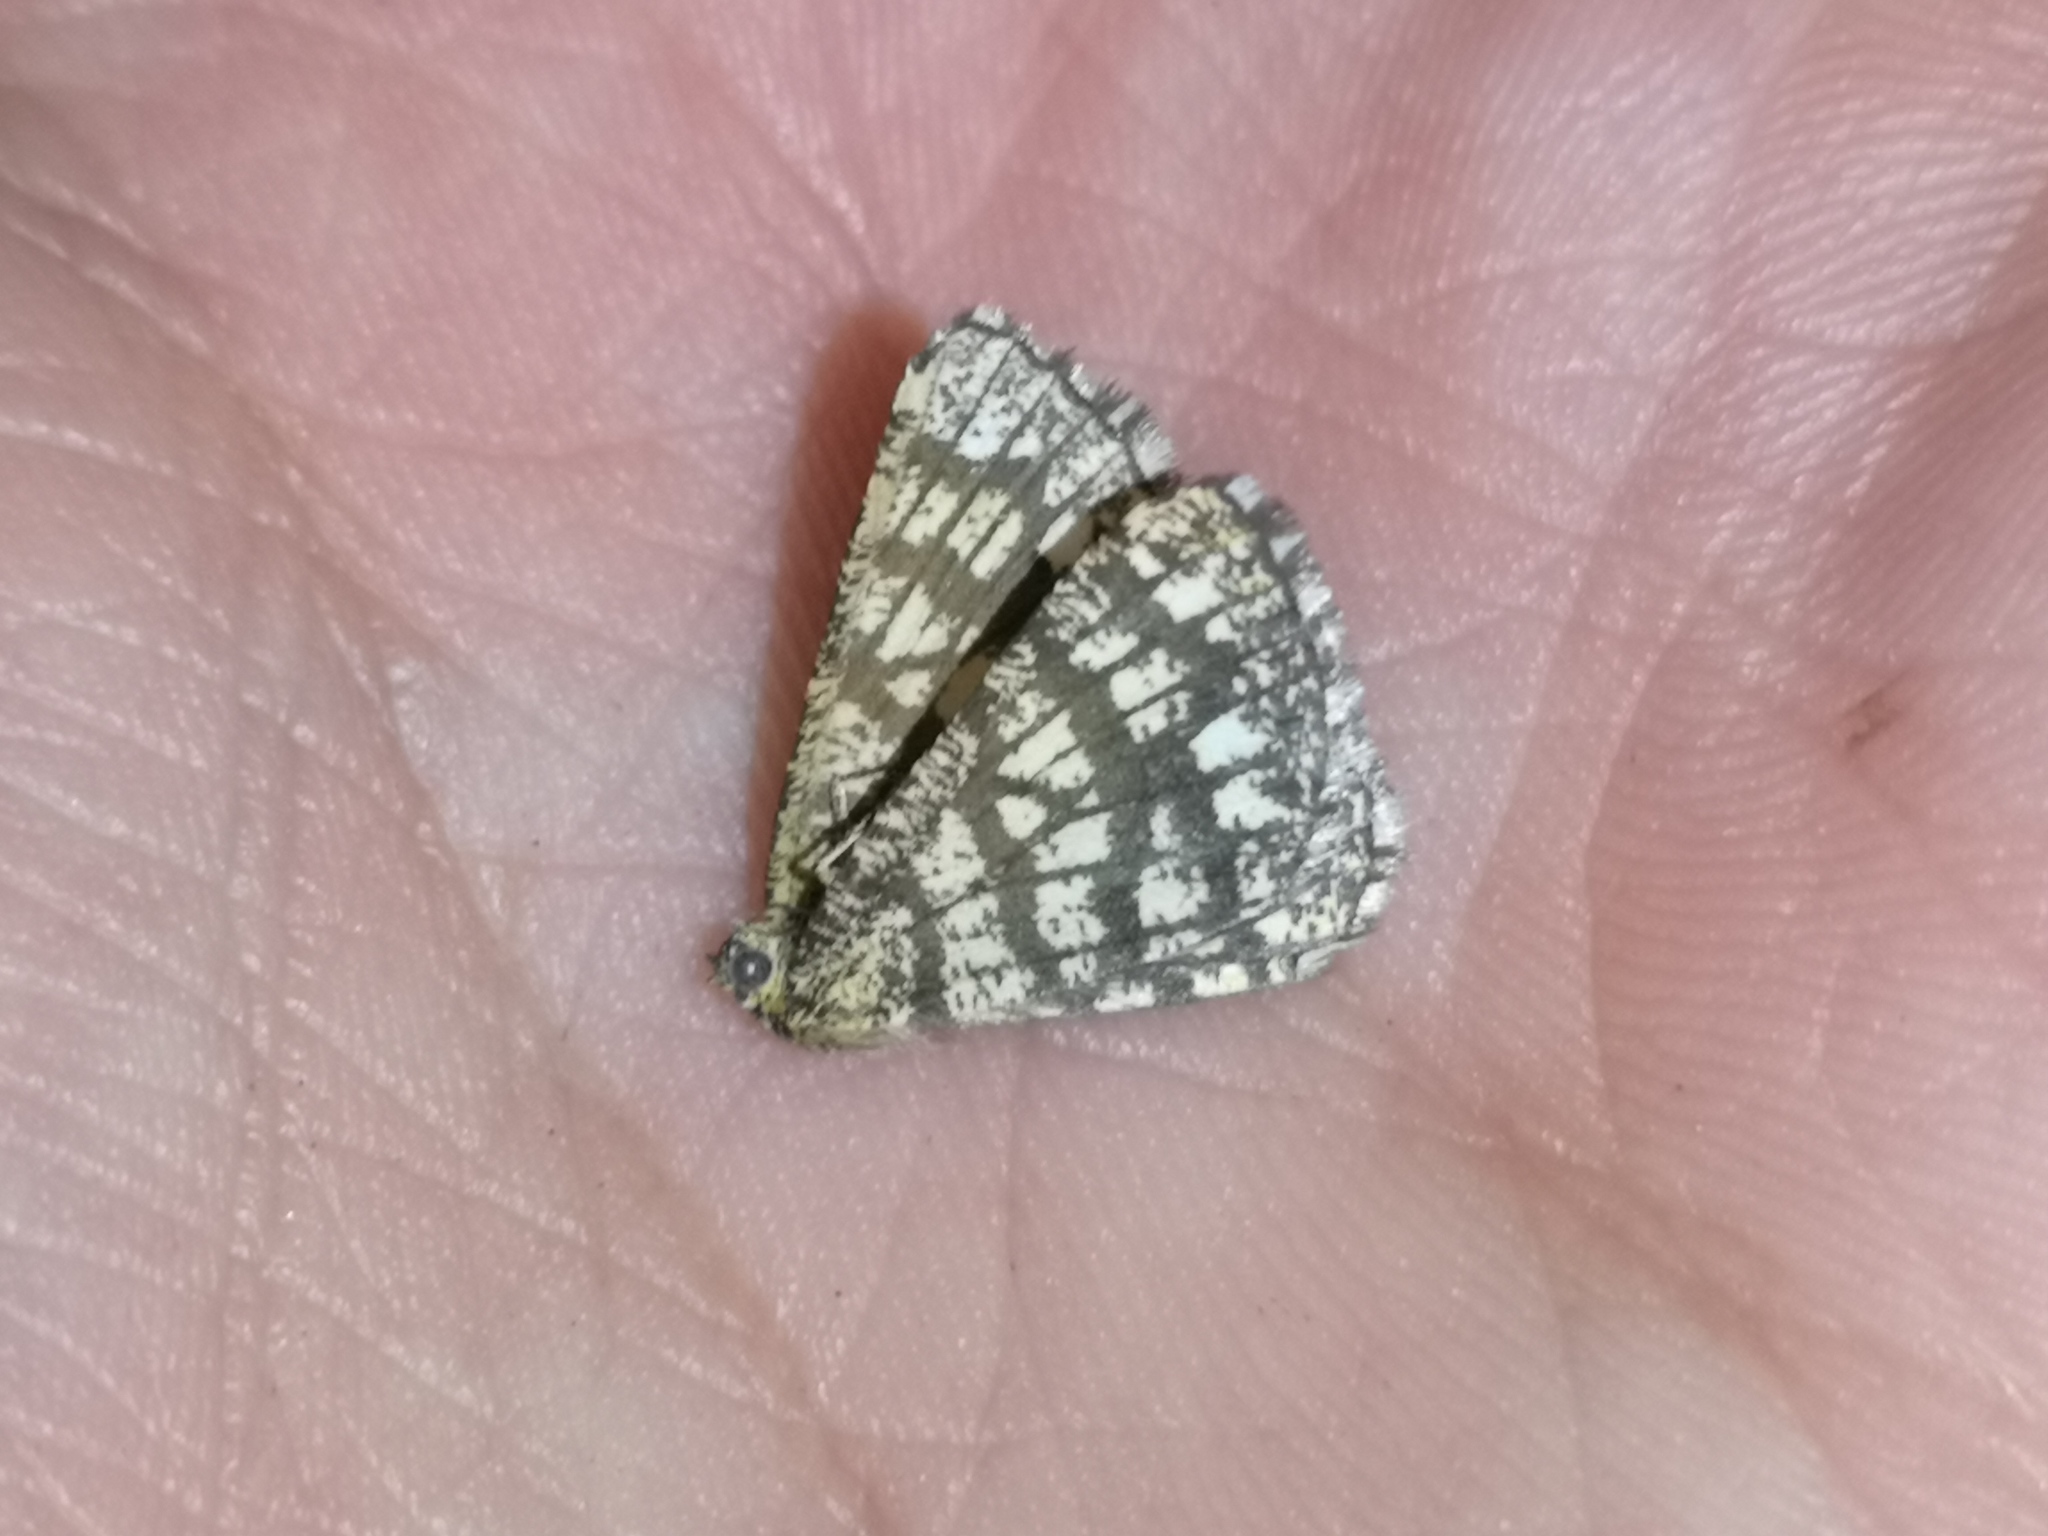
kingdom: Animalia
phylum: Arthropoda
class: Insecta
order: Lepidoptera
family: Geometridae
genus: Chiasmia
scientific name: Chiasmia clathrata
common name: Latticed heath
